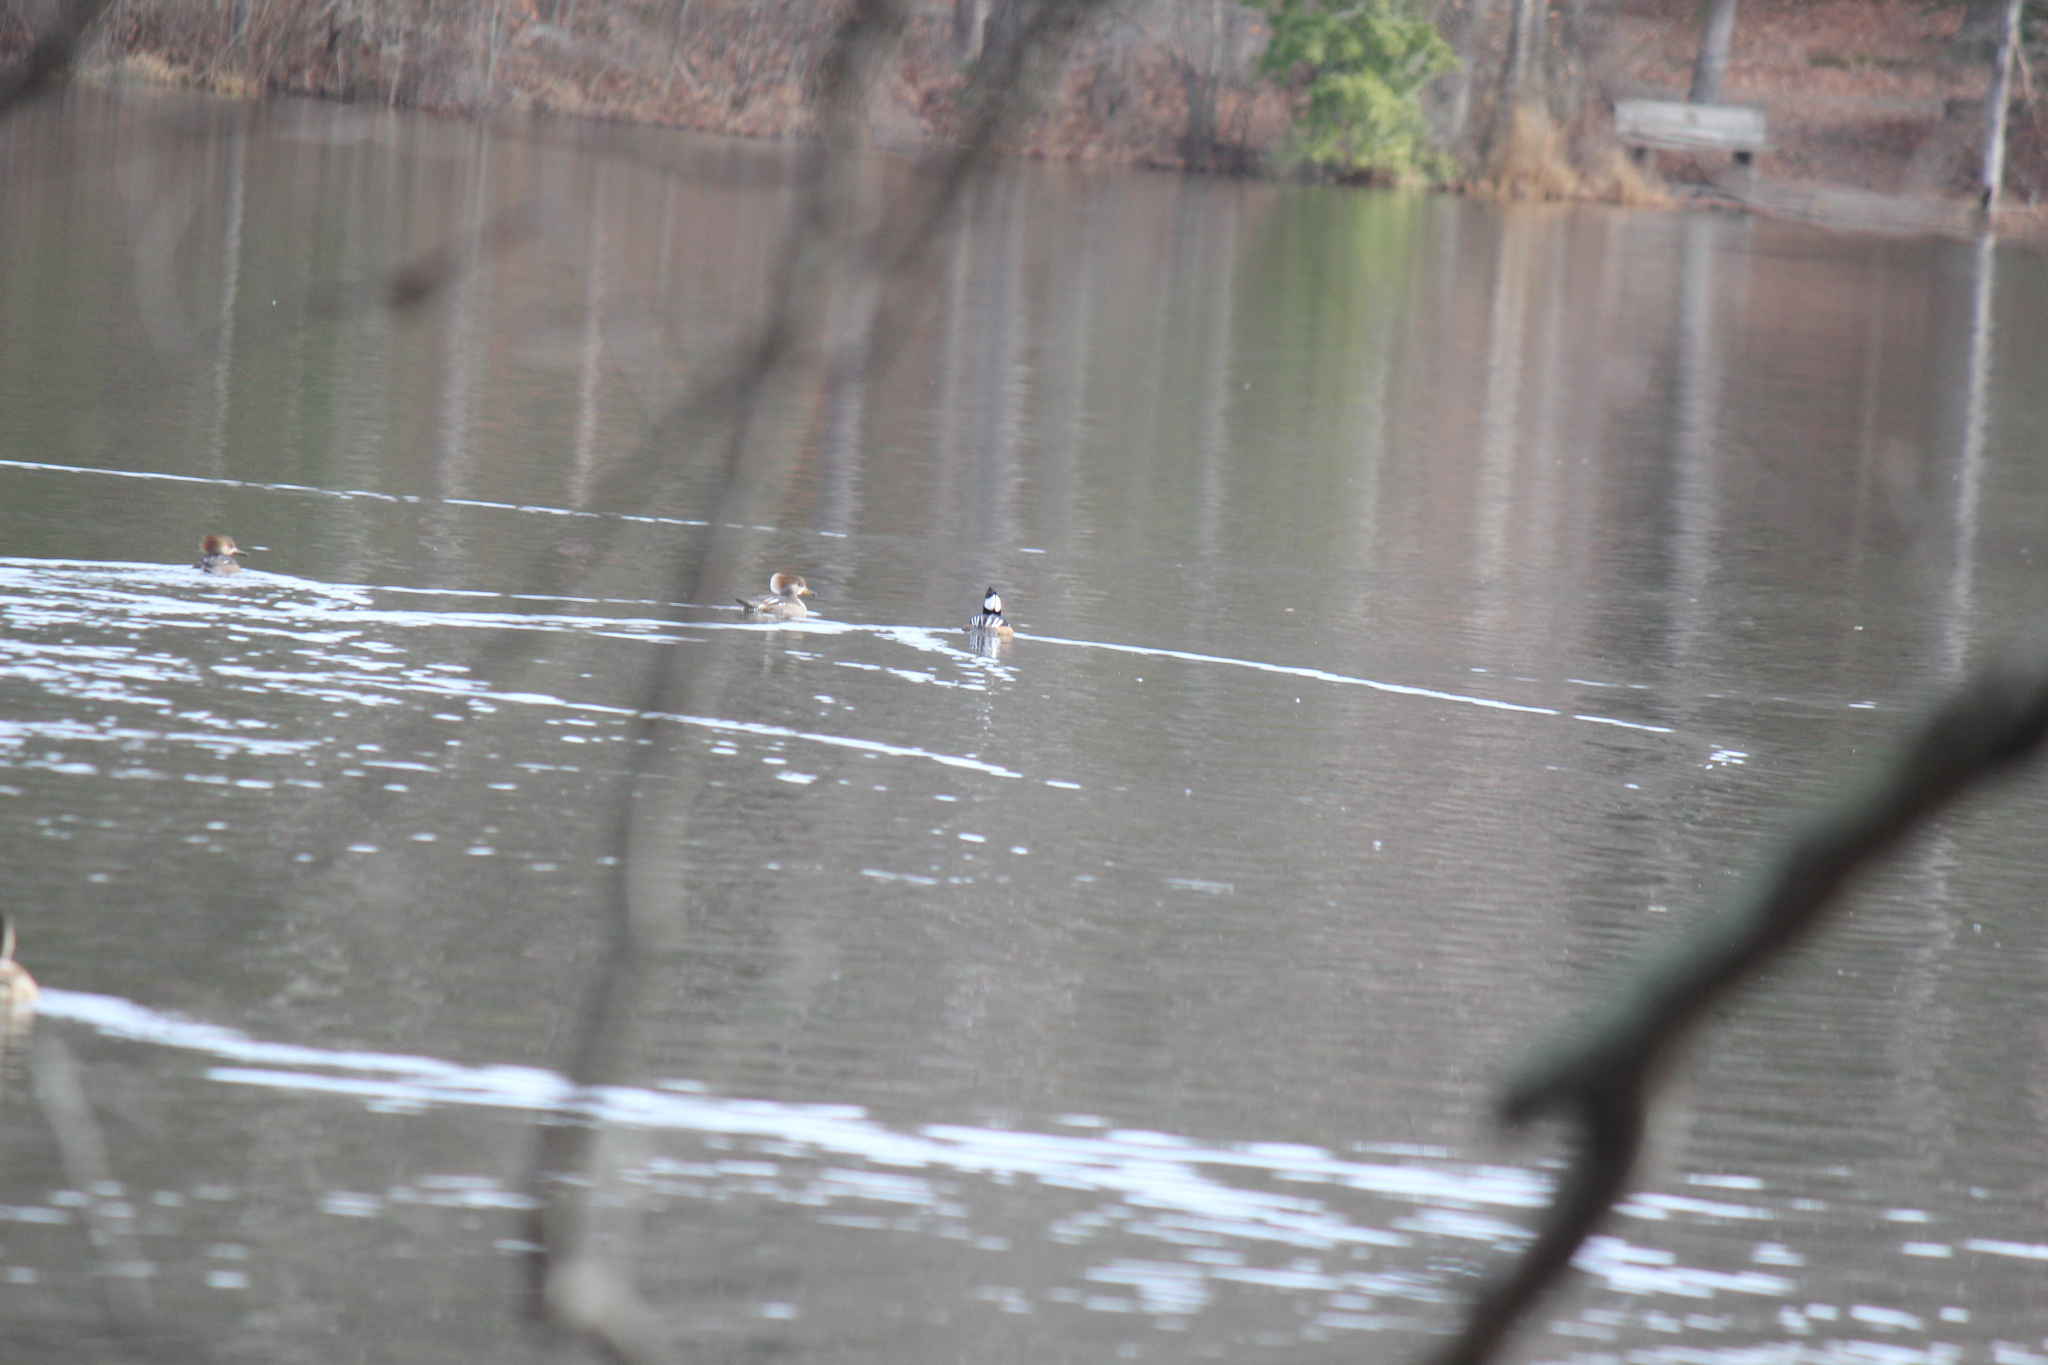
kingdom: Animalia
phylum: Chordata
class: Aves
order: Anseriformes
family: Anatidae
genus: Lophodytes
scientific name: Lophodytes cucullatus
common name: Hooded merganser
